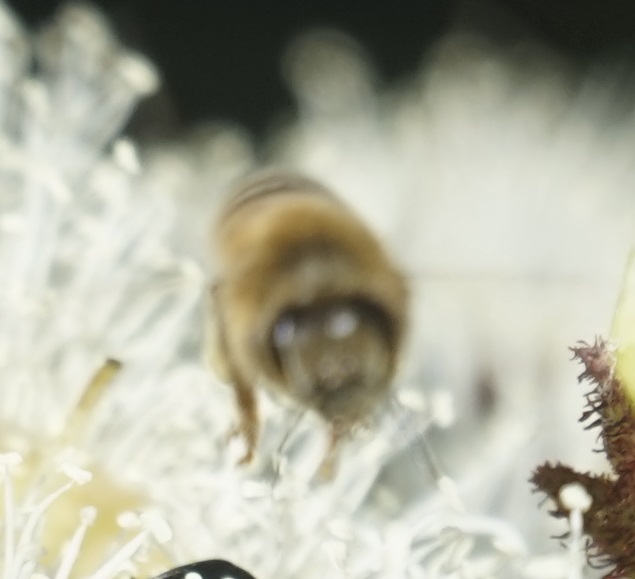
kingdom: Animalia
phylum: Arthropoda
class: Insecta
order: Hymenoptera
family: Apidae
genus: Apis
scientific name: Apis mellifera
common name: Honey bee
